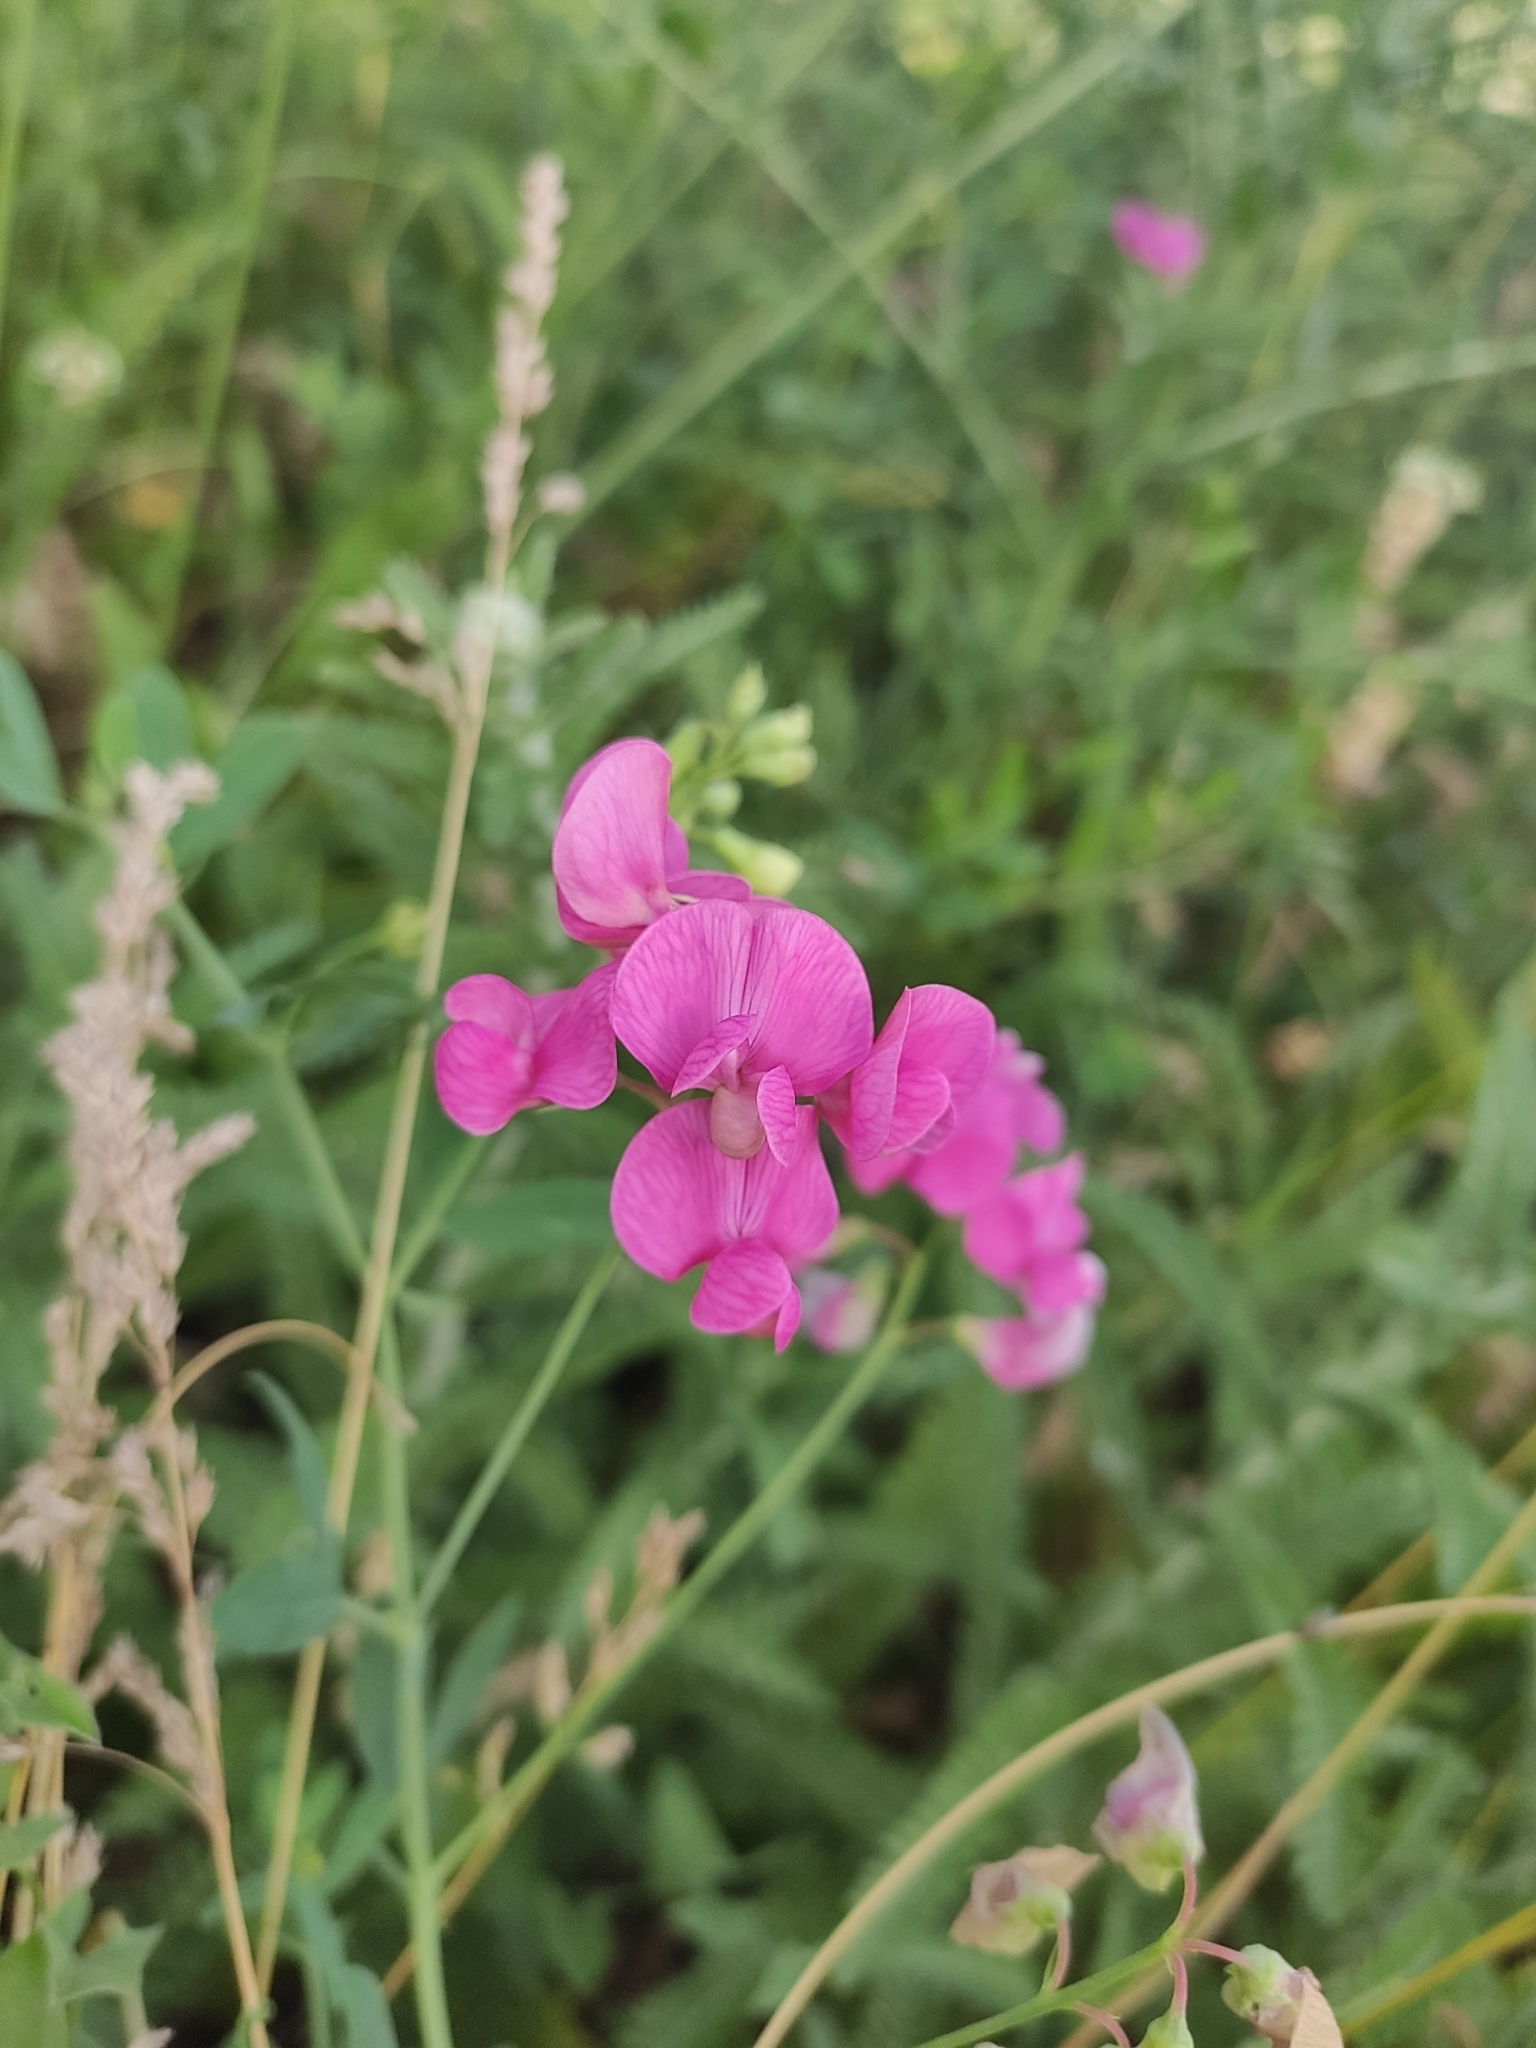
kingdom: Plantae
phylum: Tracheophyta
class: Magnoliopsida
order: Fabales
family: Fabaceae
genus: Lathyrus
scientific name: Lathyrus tuberosus
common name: Tuberous pea
